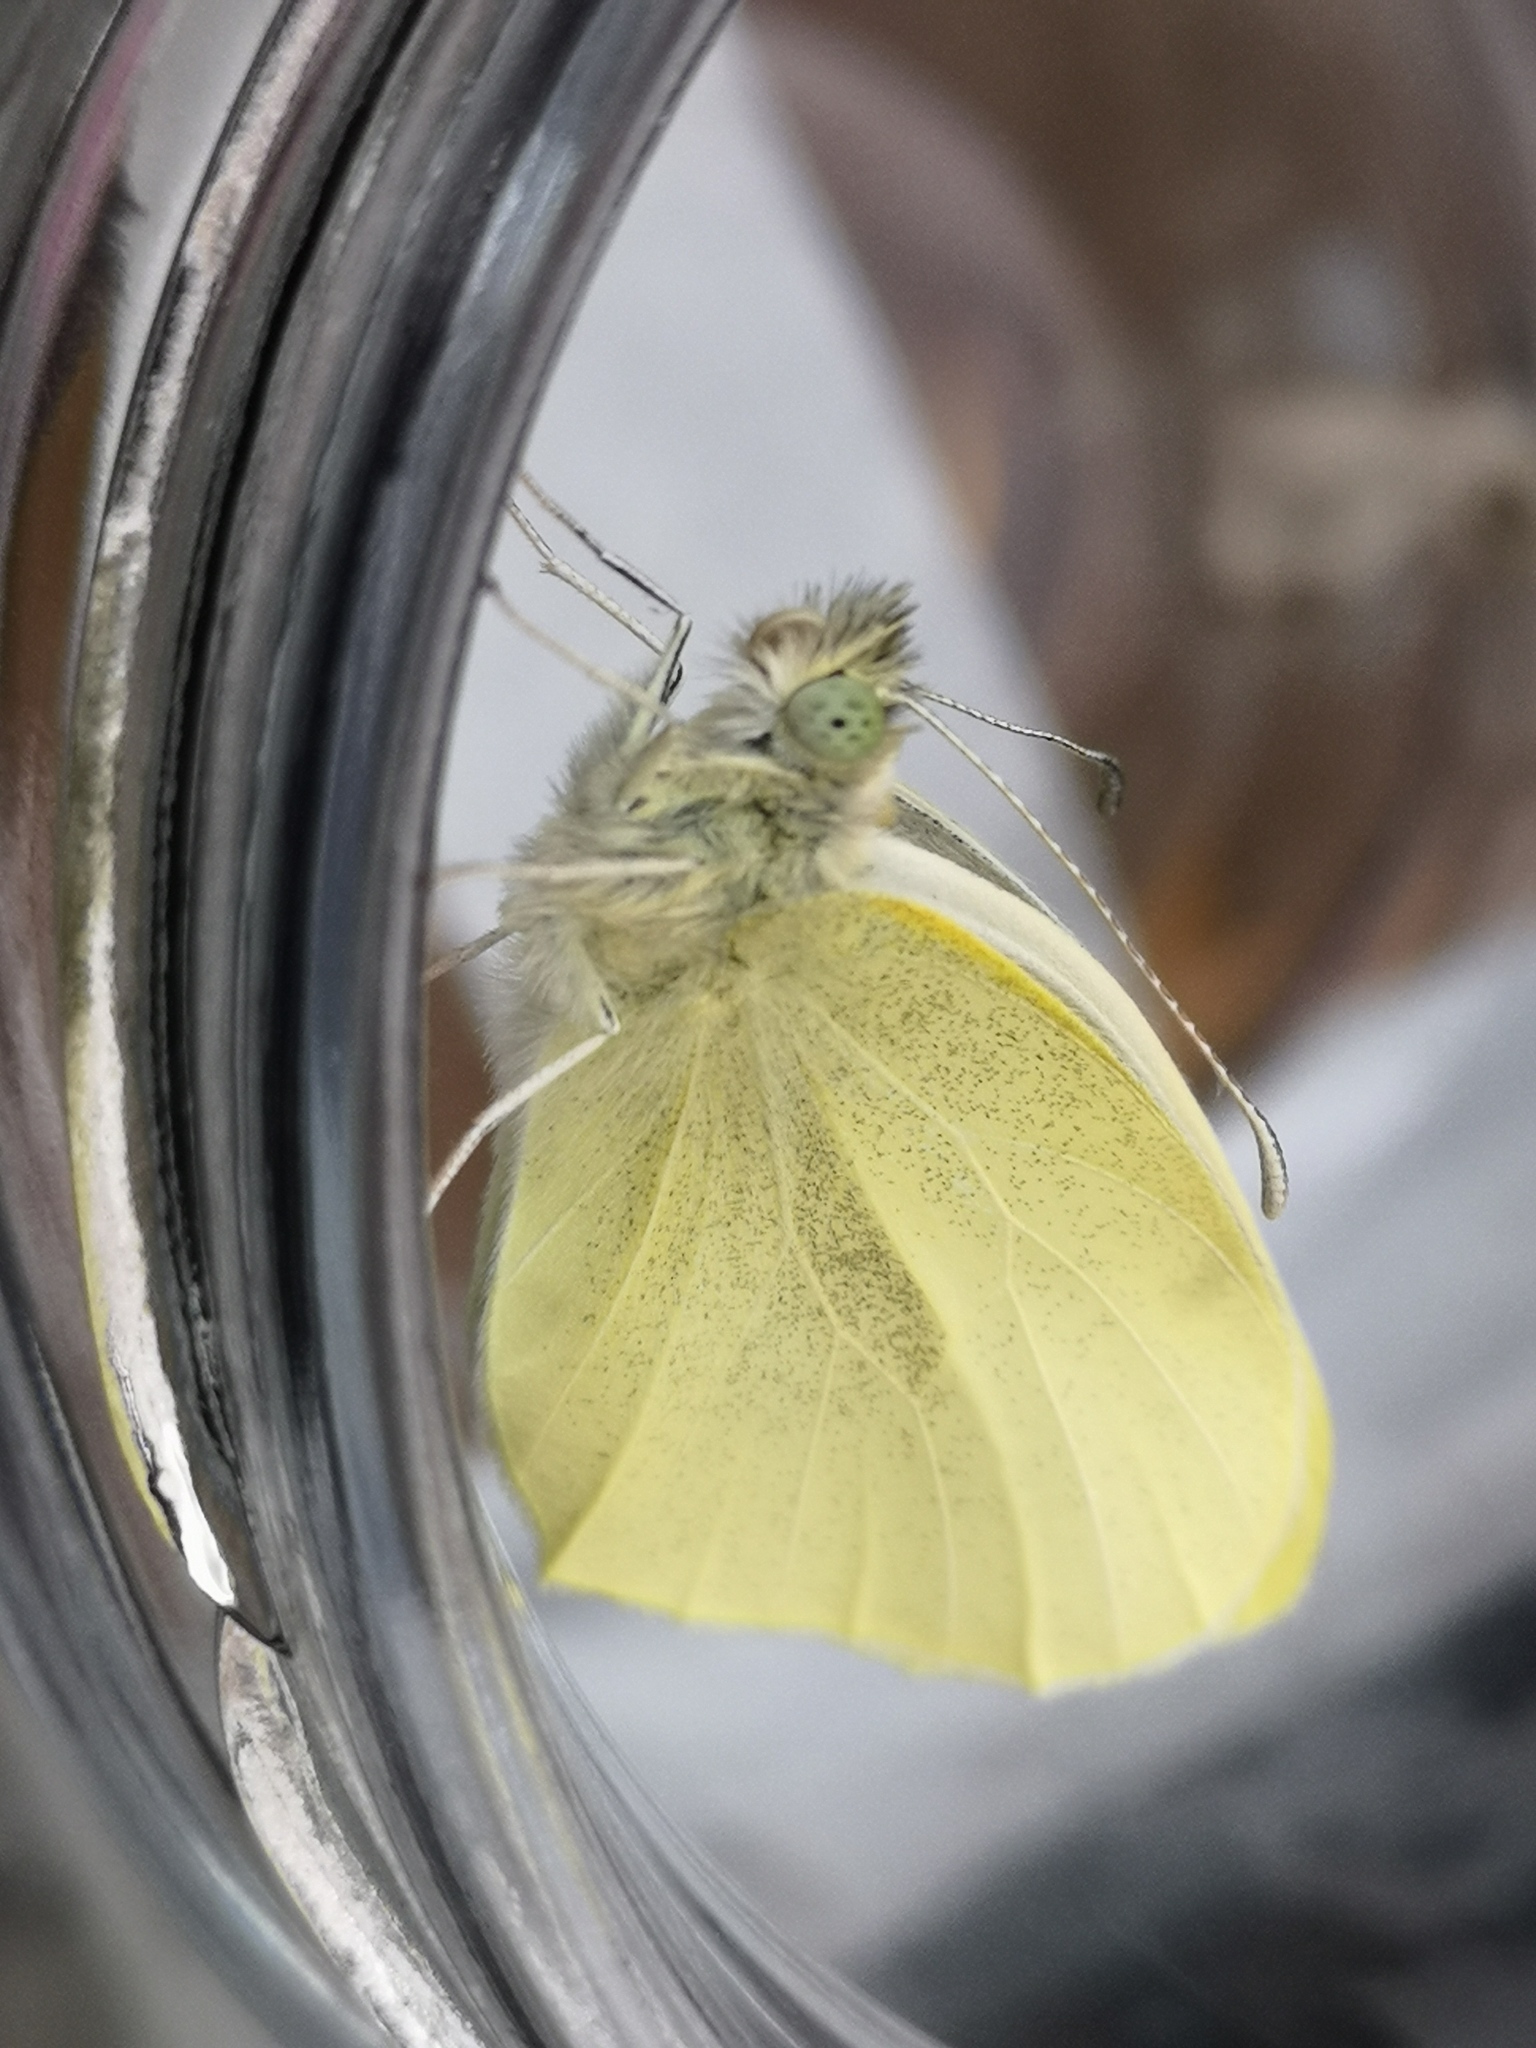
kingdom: Animalia
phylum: Arthropoda
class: Insecta
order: Lepidoptera
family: Pieridae
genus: Pieris
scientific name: Pieris rapae
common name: Small white
